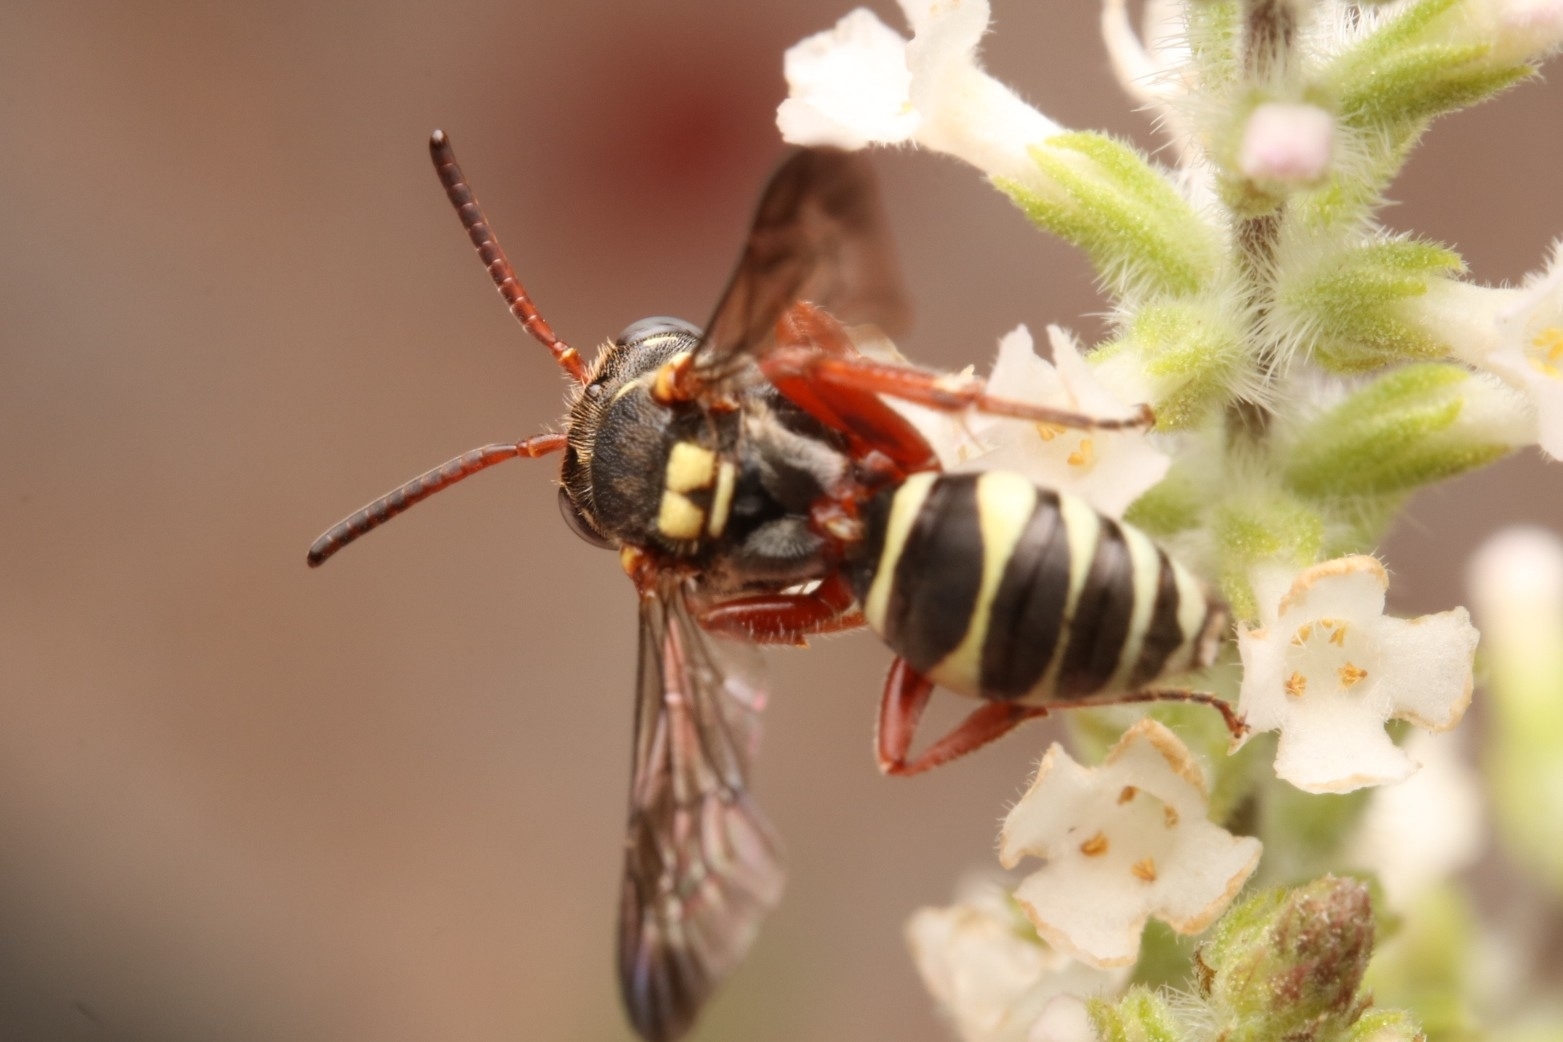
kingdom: Animalia
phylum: Arthropoda
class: Insecta
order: Hymenoptera
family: Apidae
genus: Nomada
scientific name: Nomada texana
